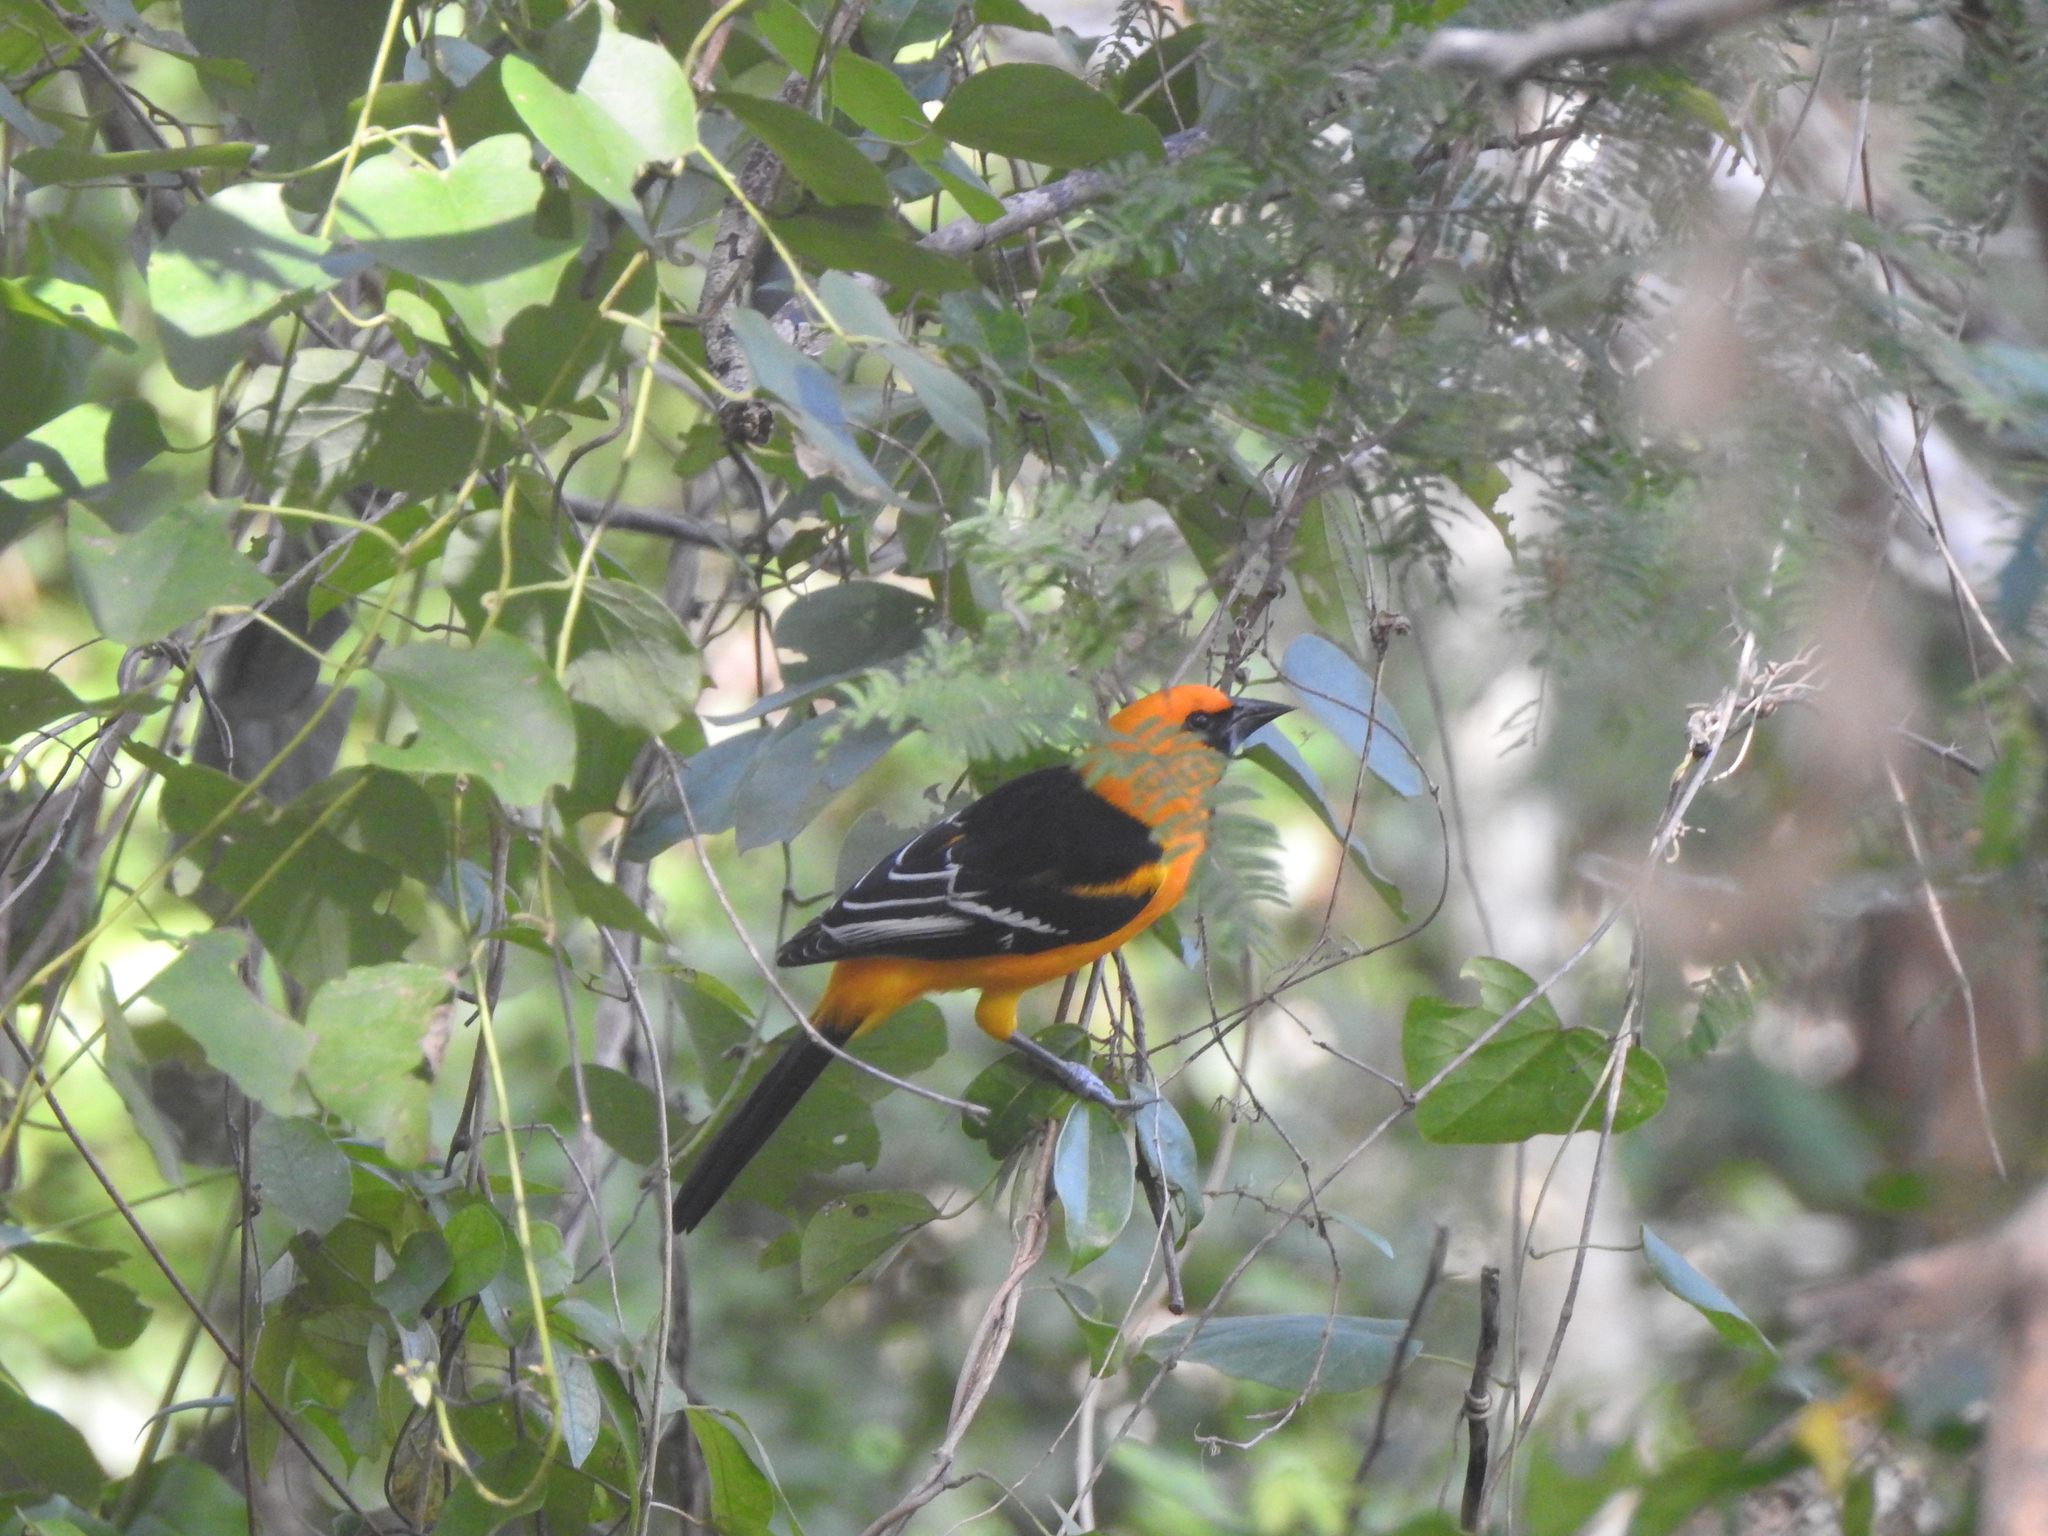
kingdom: Animalia
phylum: Chordata
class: Aves
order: Passeriformes
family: Icteridae
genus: Icterus
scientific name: Icterus gularis
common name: Altamira oriole
